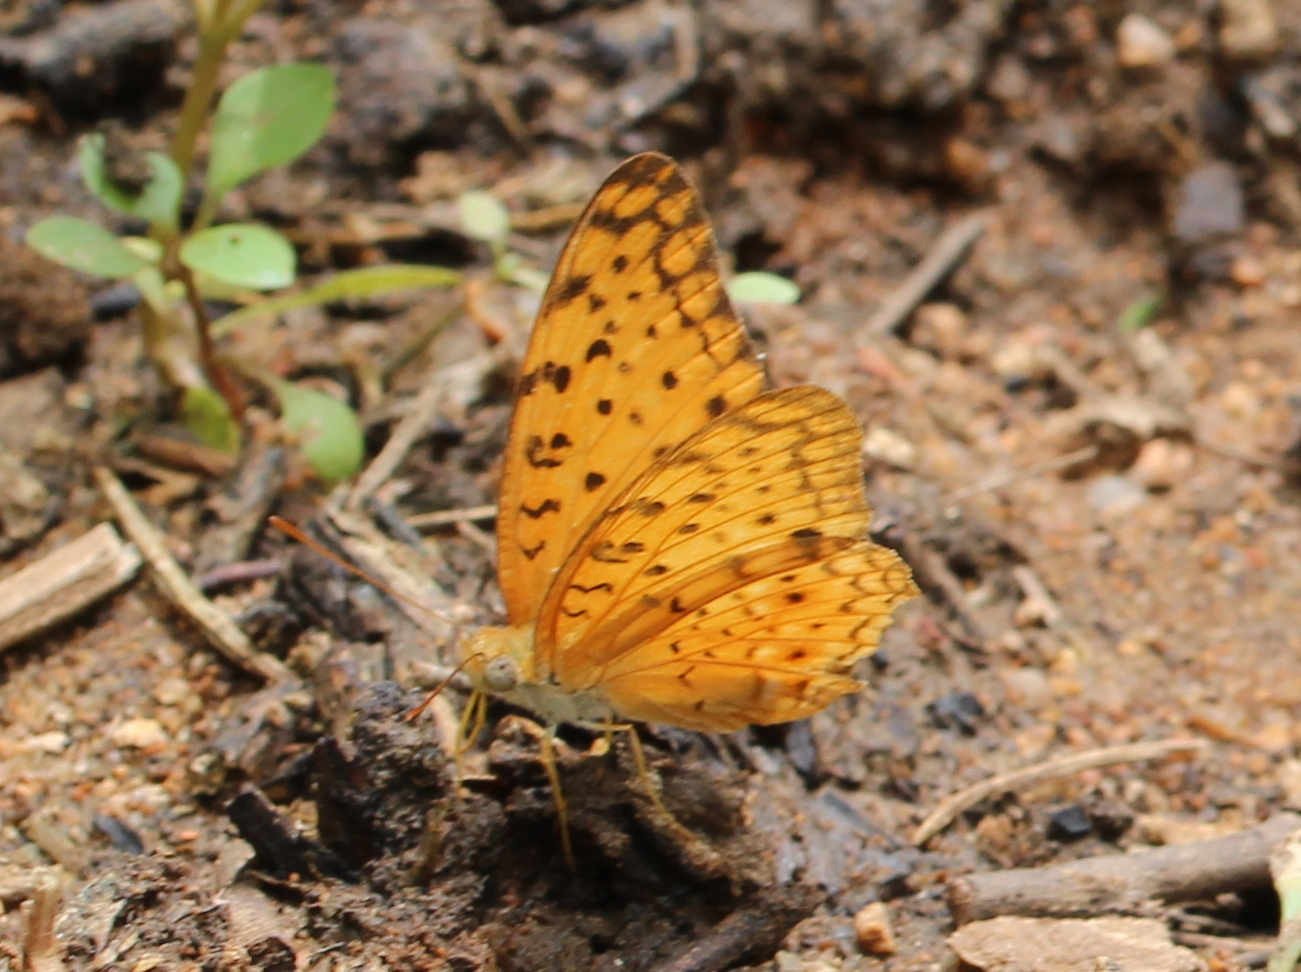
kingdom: Animalia
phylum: Arthropoda
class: Insecta
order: Lepidoptera
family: Nymphalidae
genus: Phalanta
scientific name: Phalanta phalantha
